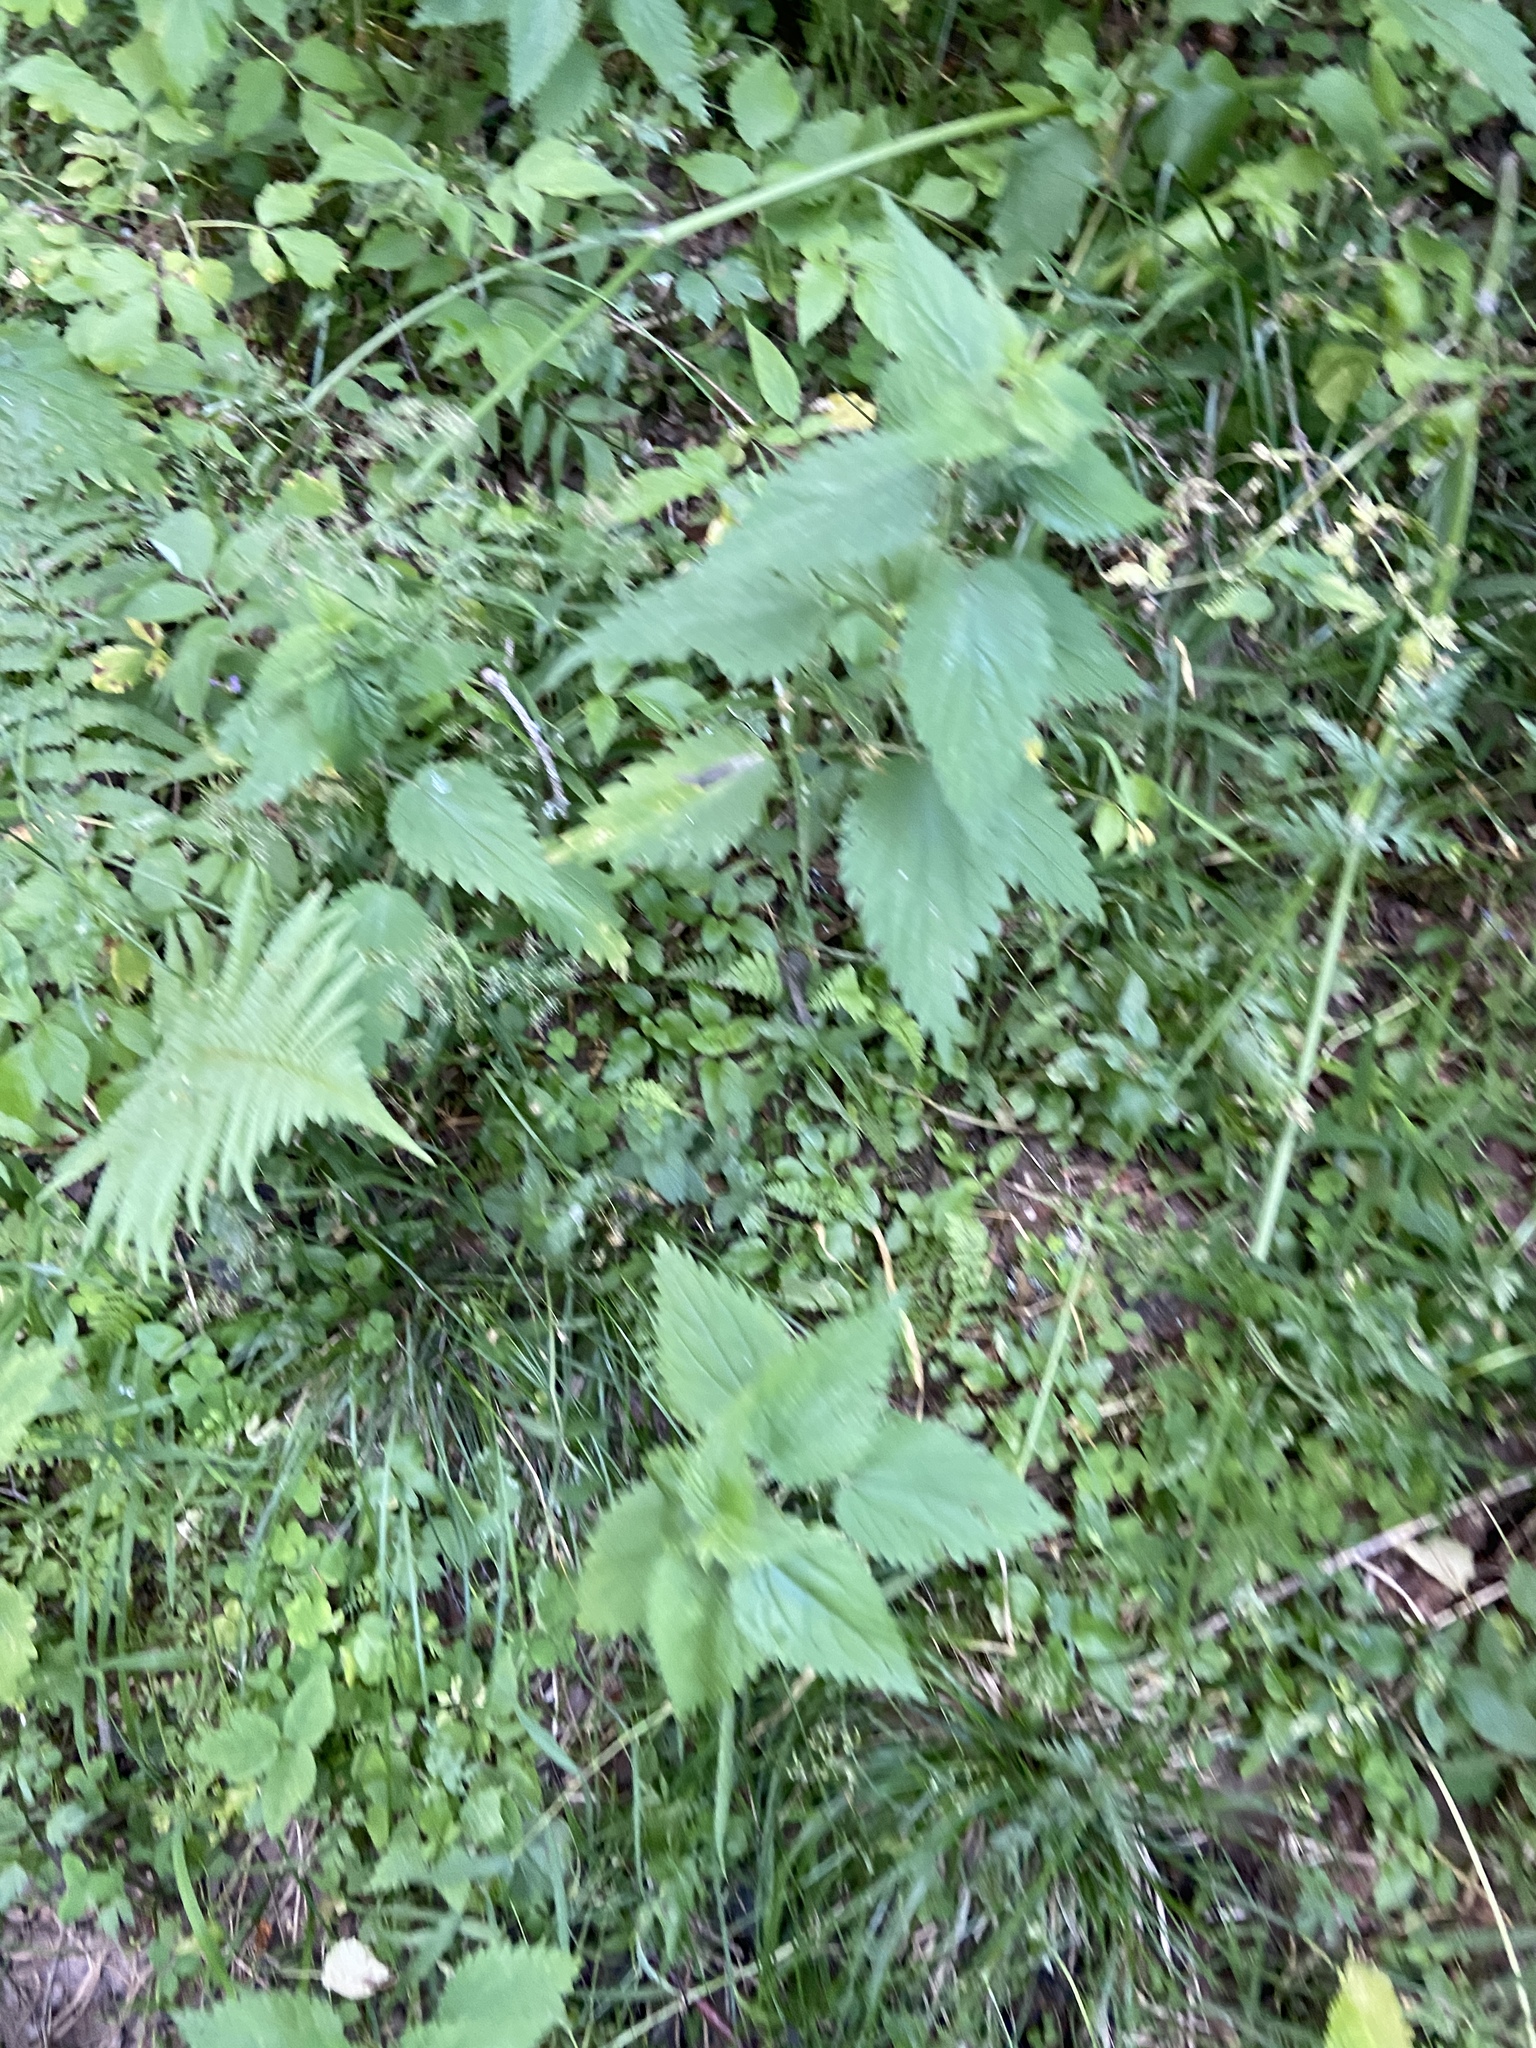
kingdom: Plantae
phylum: Tracheophyta
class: Magnoliopsida
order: Rosales
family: Urticaceae
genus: Urtica
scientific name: Urtica dioica
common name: Common nettle
